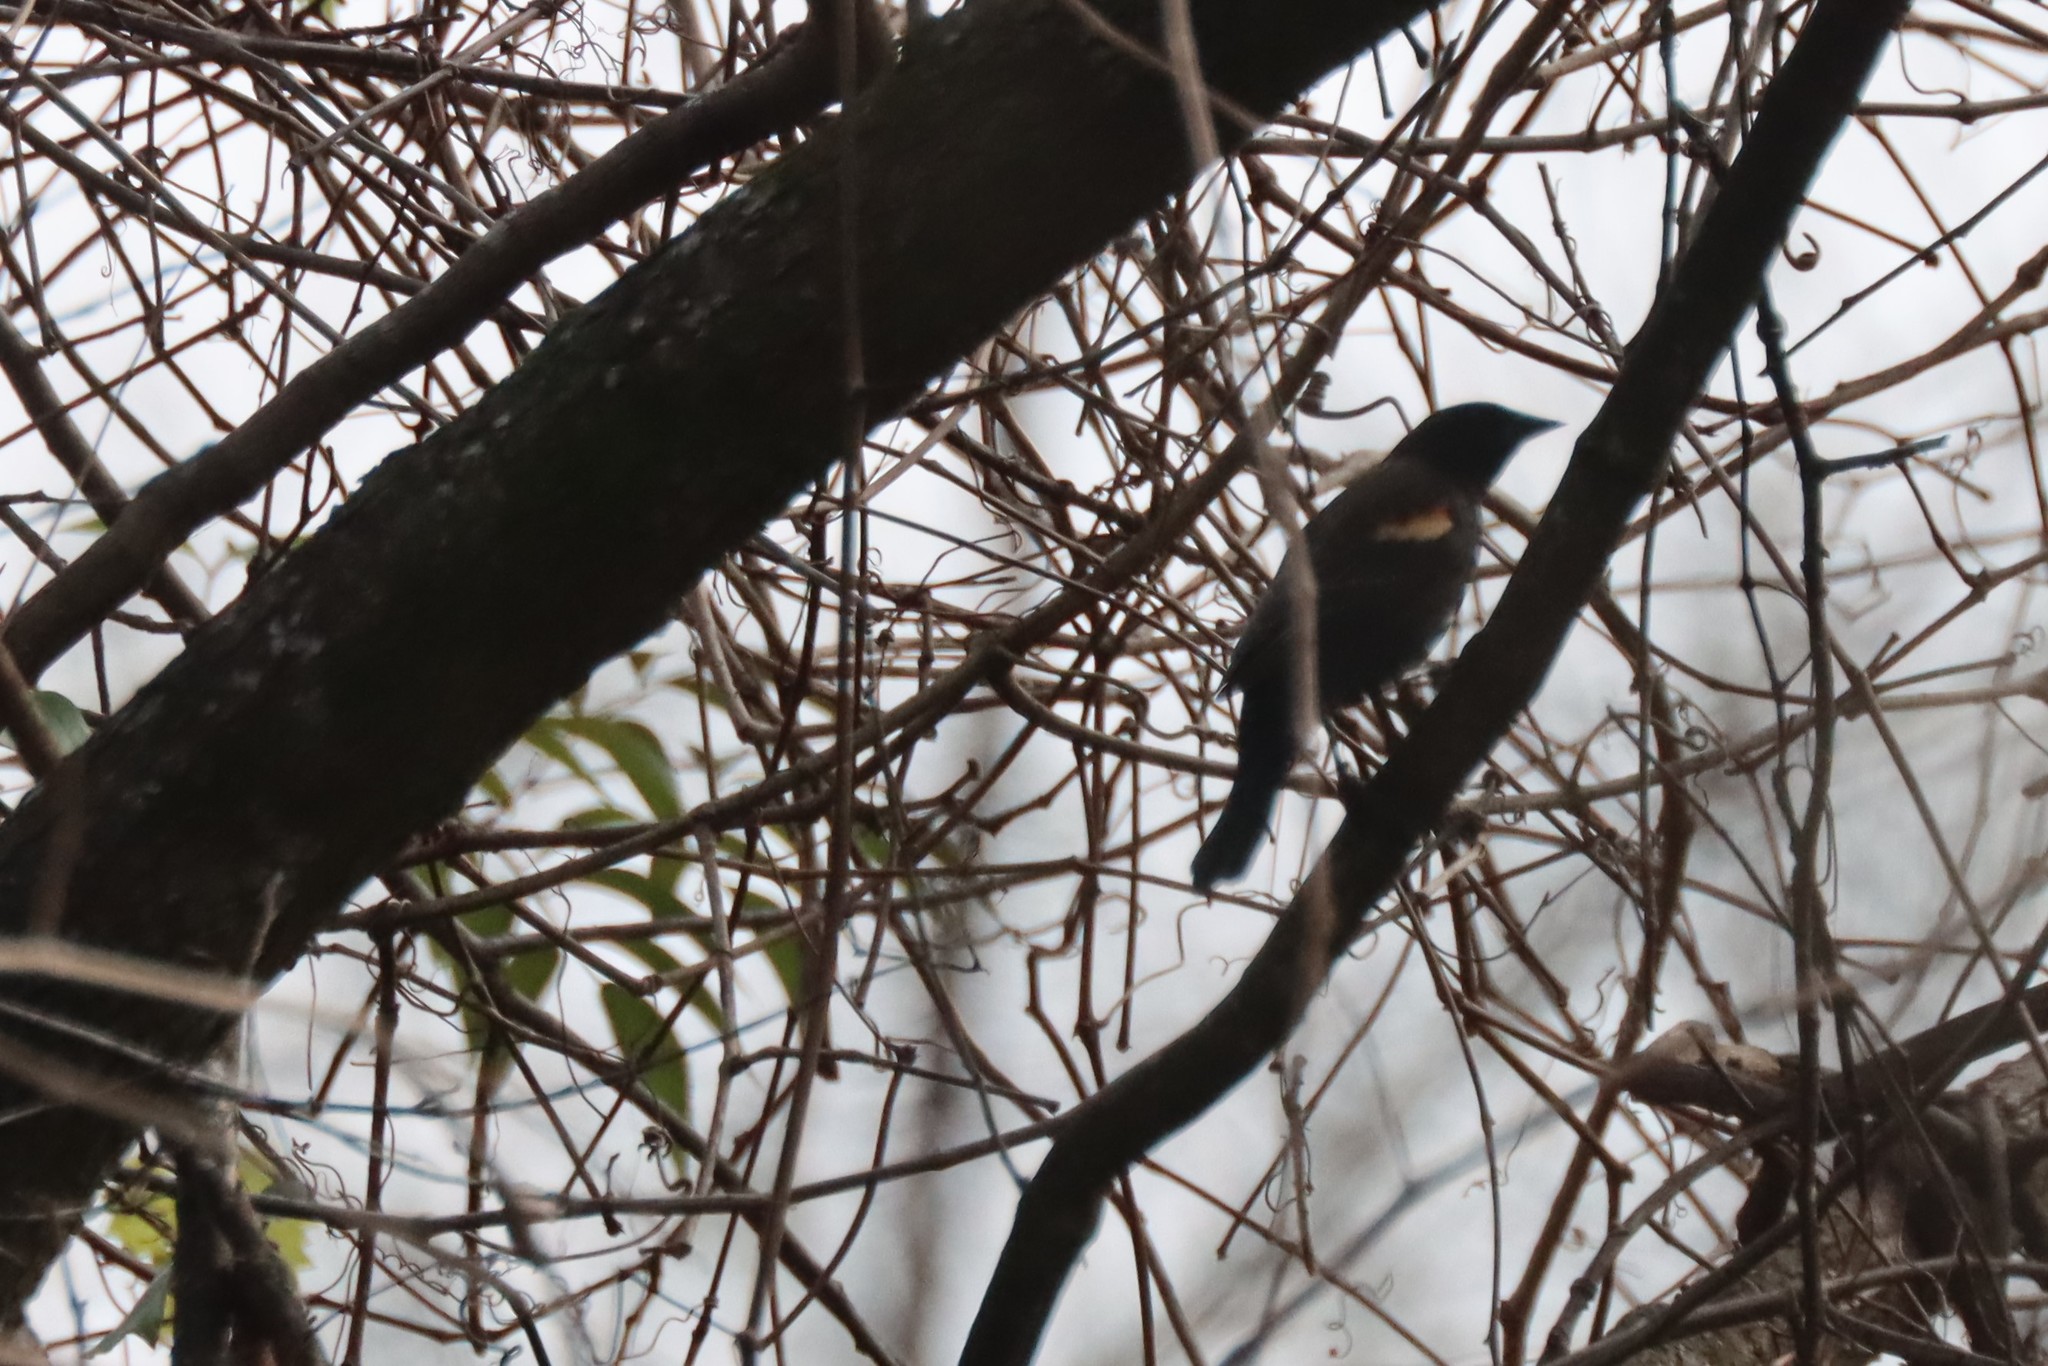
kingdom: Animalia
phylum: Chordata
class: Aves
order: Passeriformes
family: Icteridae
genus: Agelaius
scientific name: Agelaius phoeniceus
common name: Red-winged blackbird
